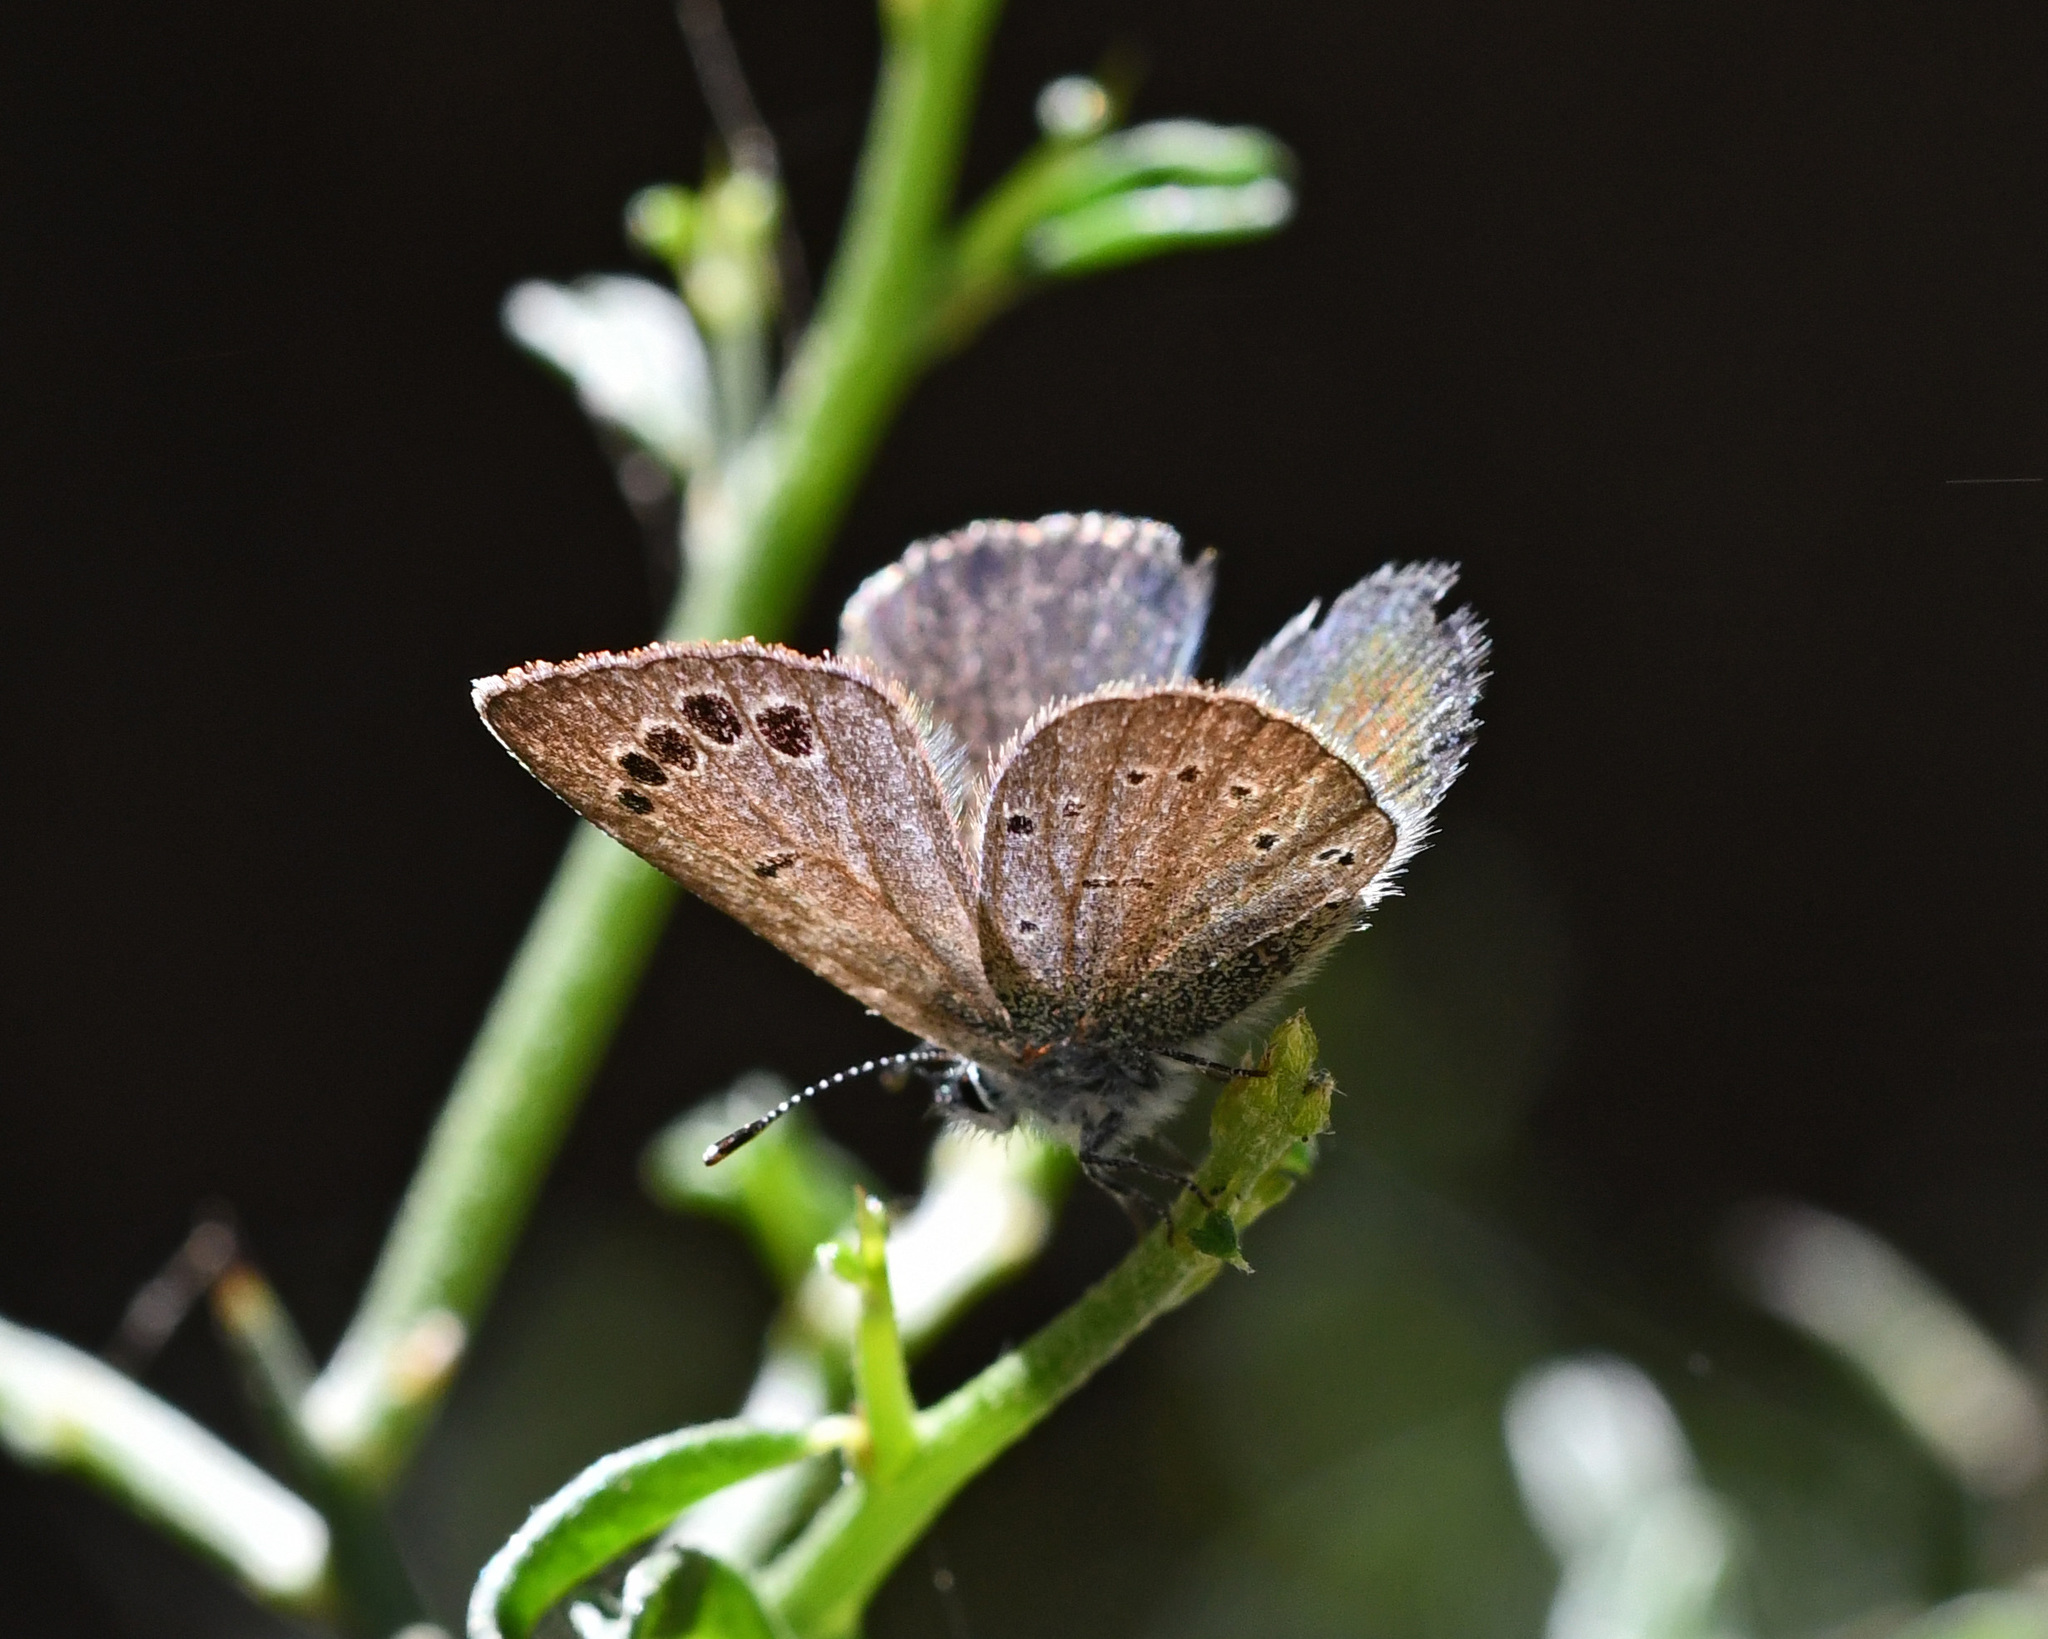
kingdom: Animalia
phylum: Arthropoda
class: Insecta
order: Lepidoptera
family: Lycaenidae
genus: Glaucopsyche
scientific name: Glaucopsyche paphos
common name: Paphos blue
